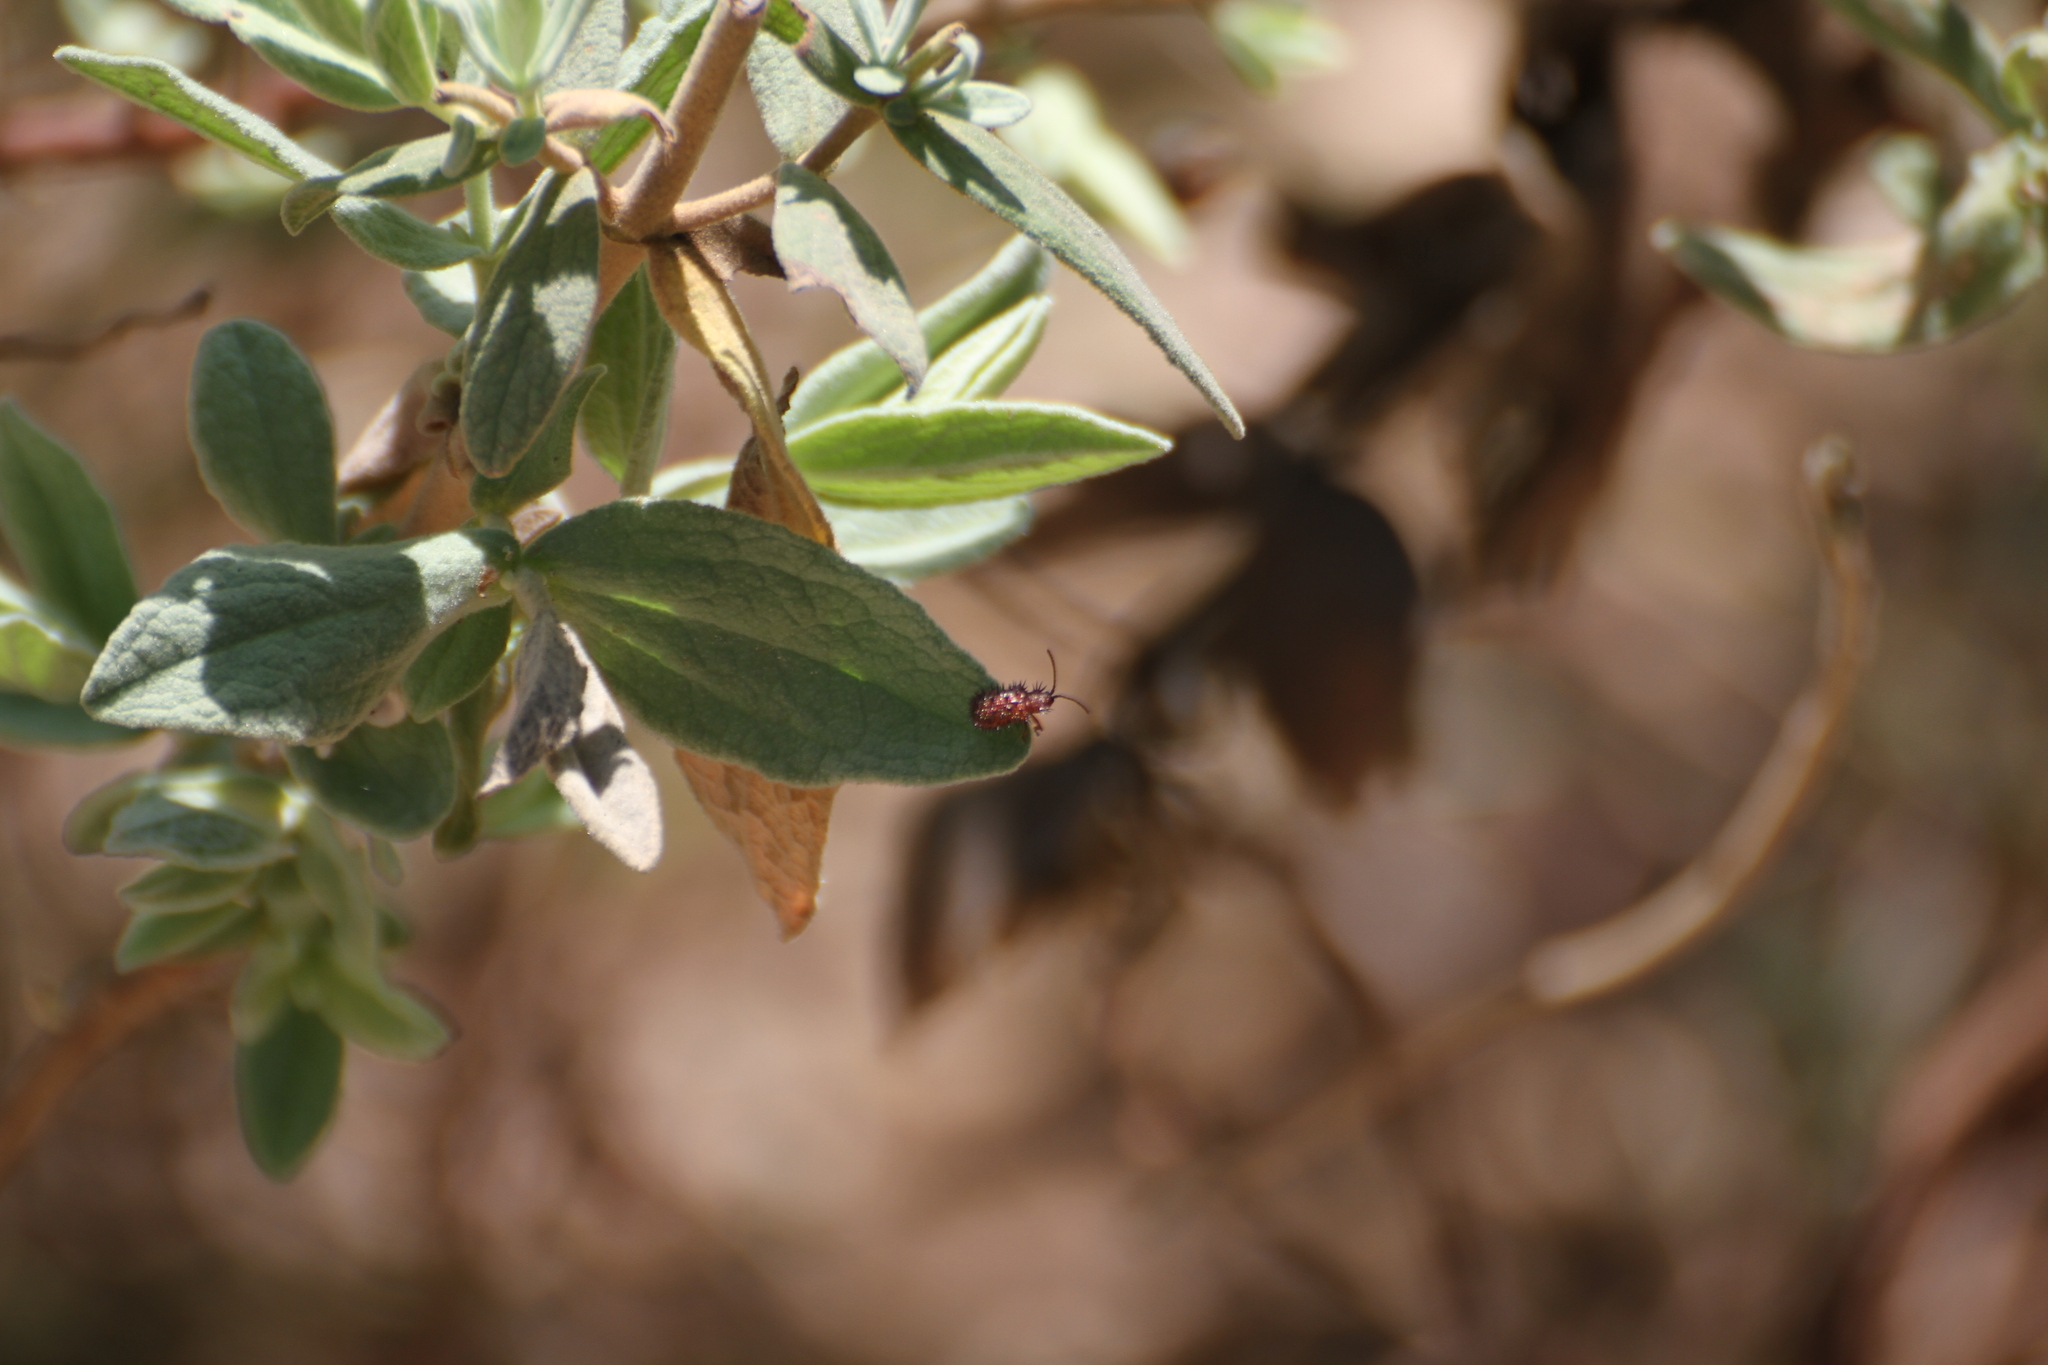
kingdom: Animalia
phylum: Arthropoda
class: Insecta
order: Coleoptera
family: Chrysomelidae
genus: Dicladispa
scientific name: Dicladispa testacea
